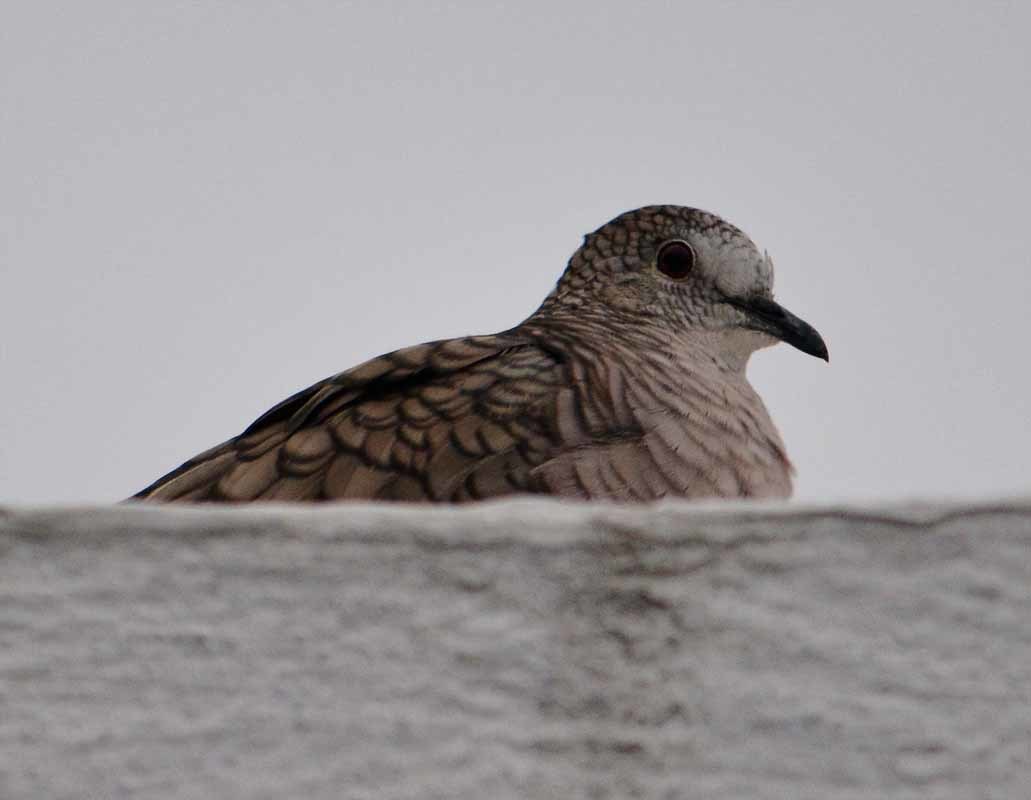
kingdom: Animalia
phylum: Chordata
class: Aves
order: Columbiformes
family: Columbidae
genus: Columbina
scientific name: Columbina inca
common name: Inca dove
